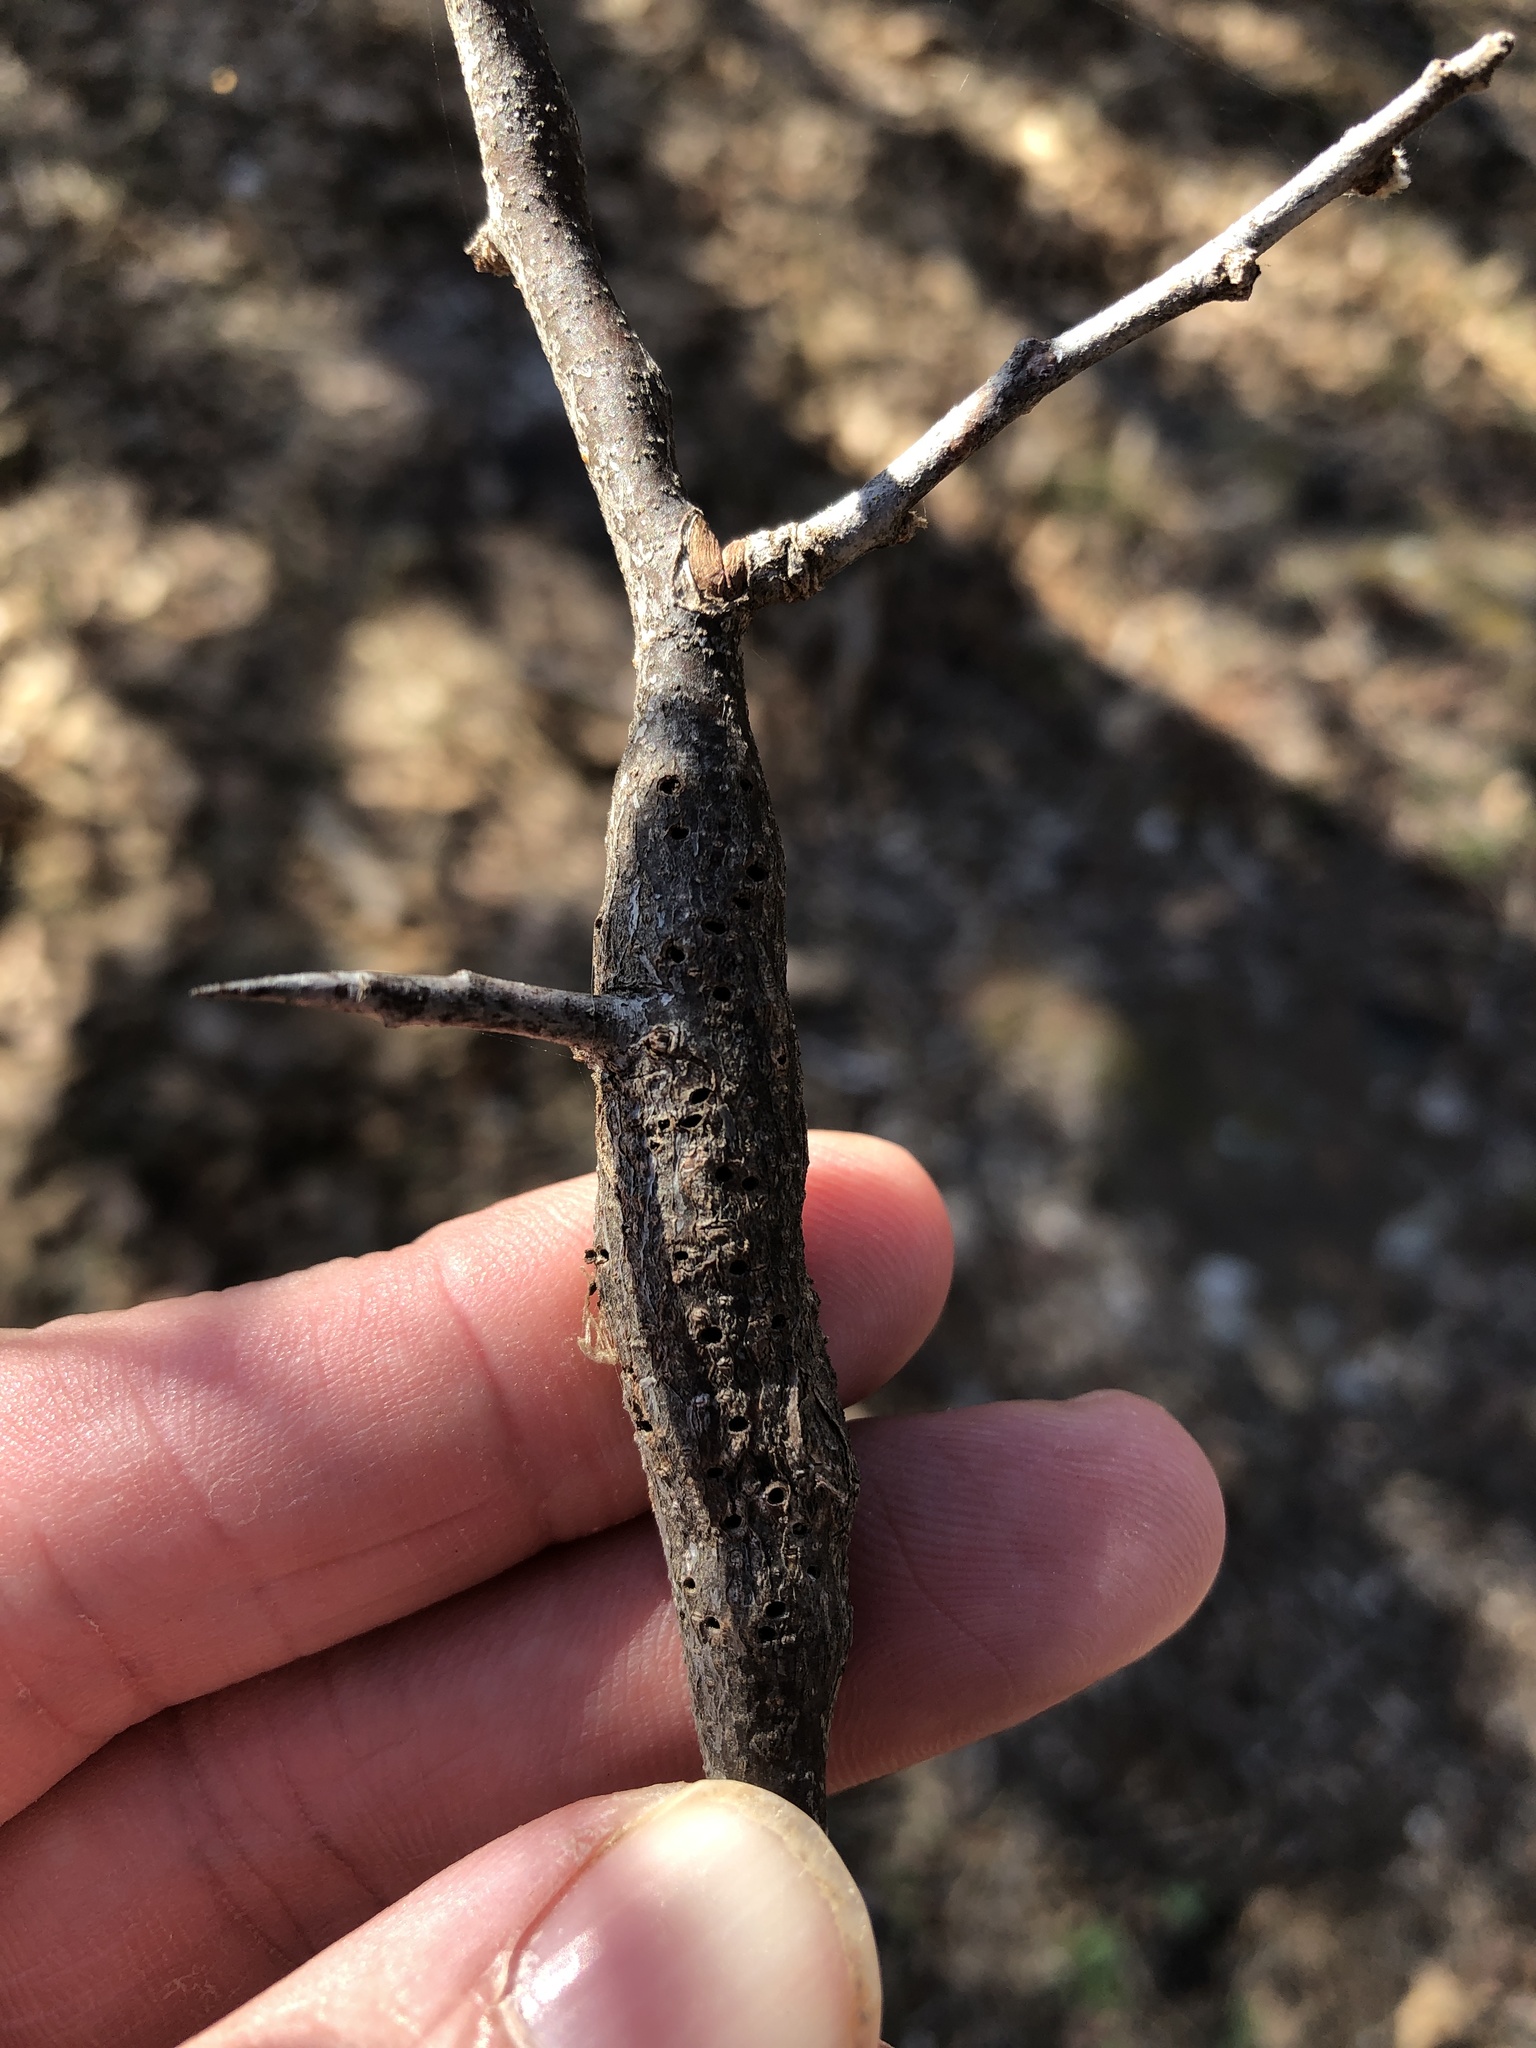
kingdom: Animalia
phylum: Arthropoda
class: Insecta
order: Diptera
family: Cecidomyiidae
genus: Bruggmanniella
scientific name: Bruggmanniella bumeliae
